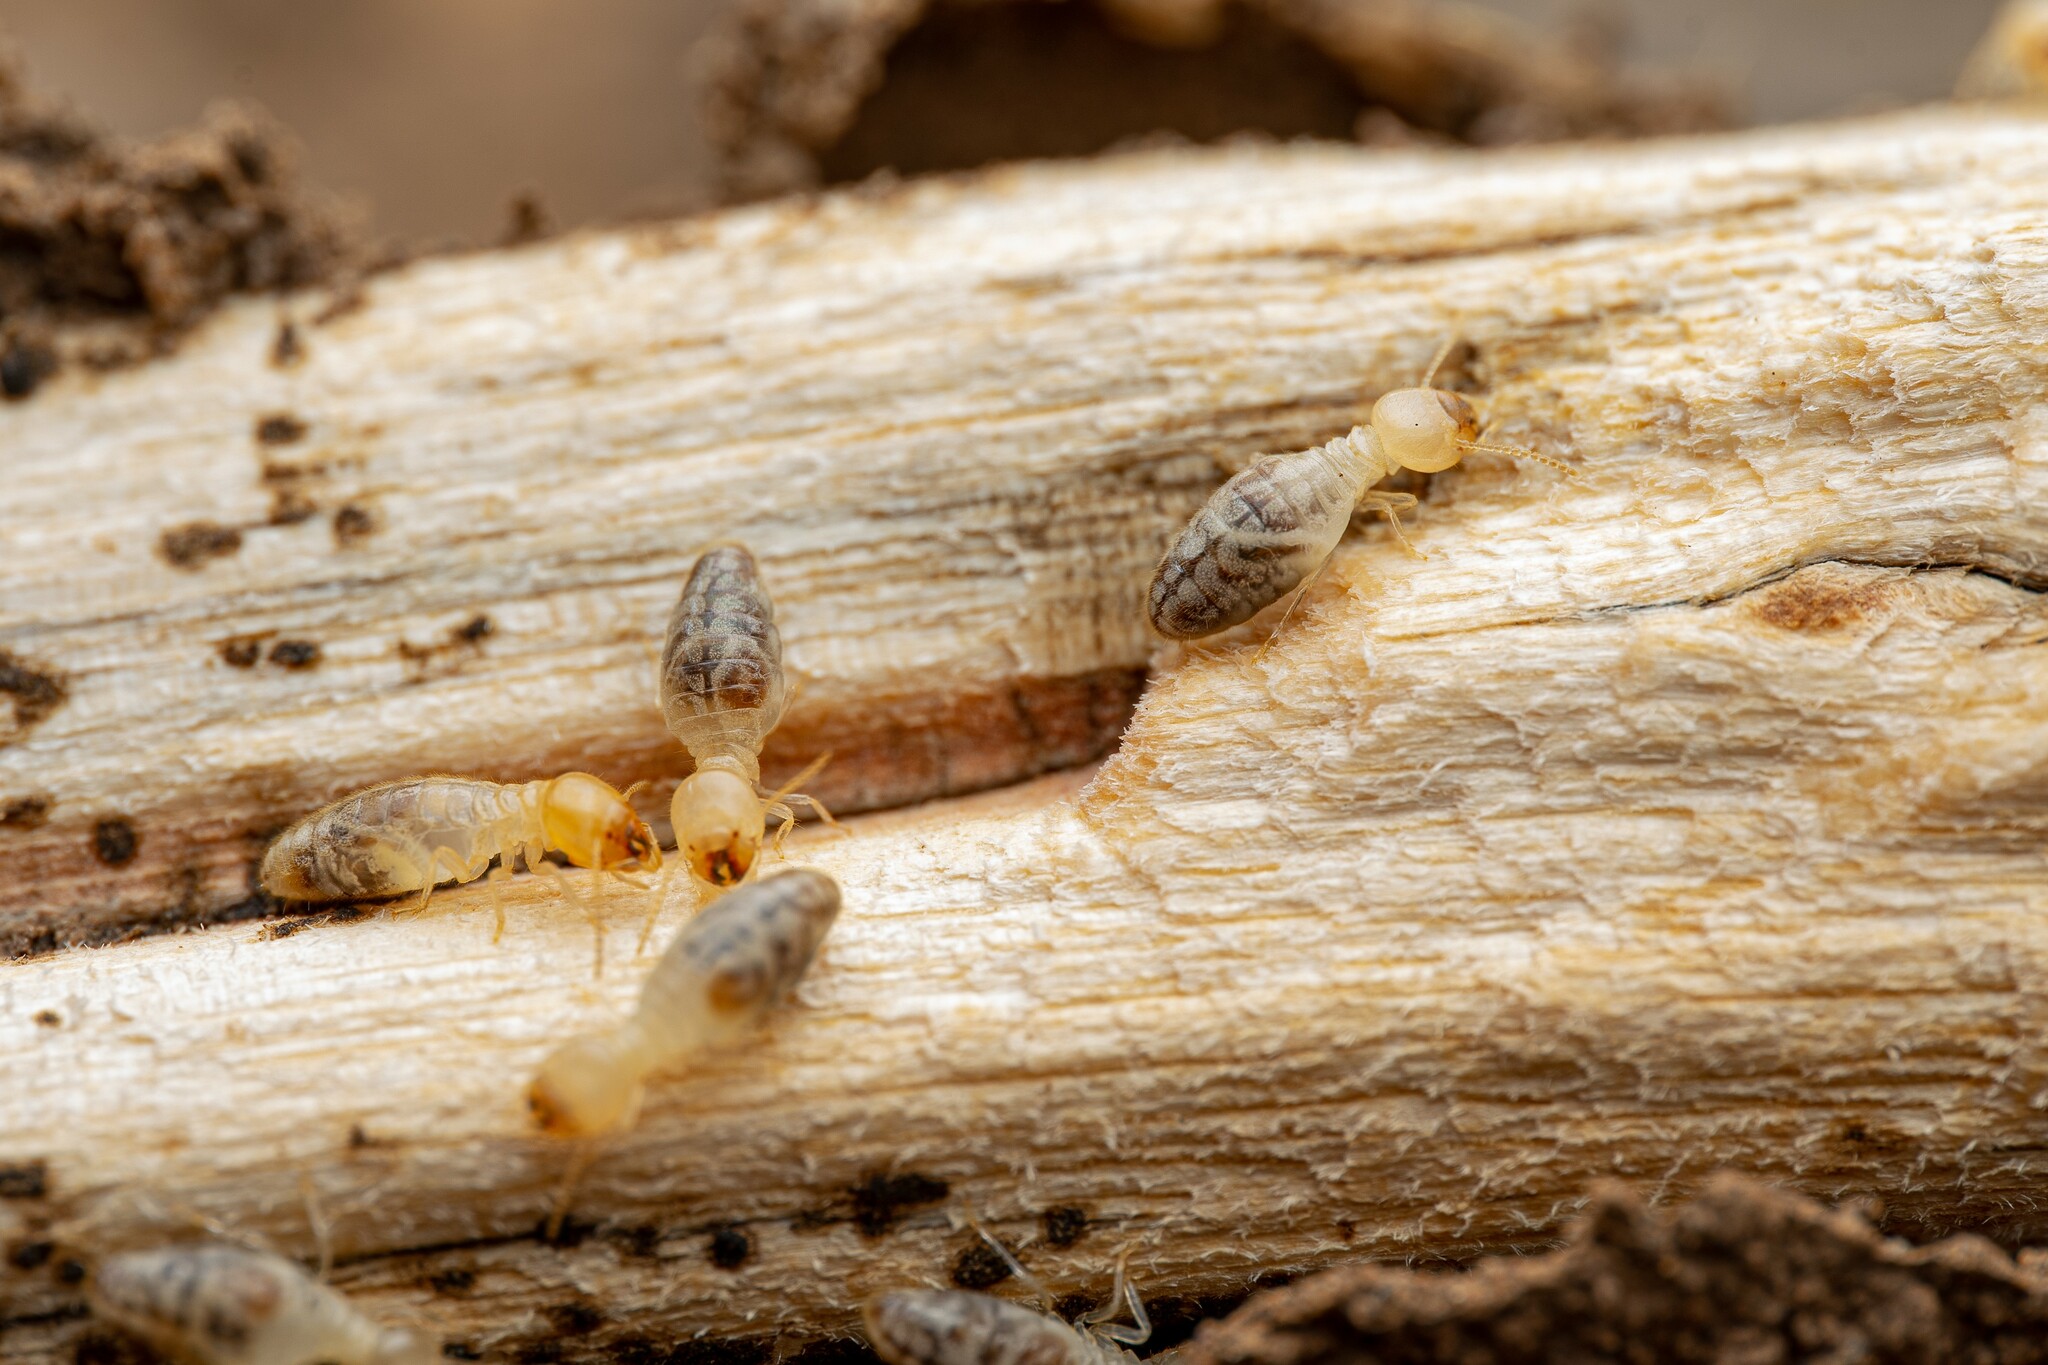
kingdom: Animalia
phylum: Arthropoda
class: Insecta
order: Blattodea
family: Termitidae
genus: Gnathamitermes
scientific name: Gnathamitermes
